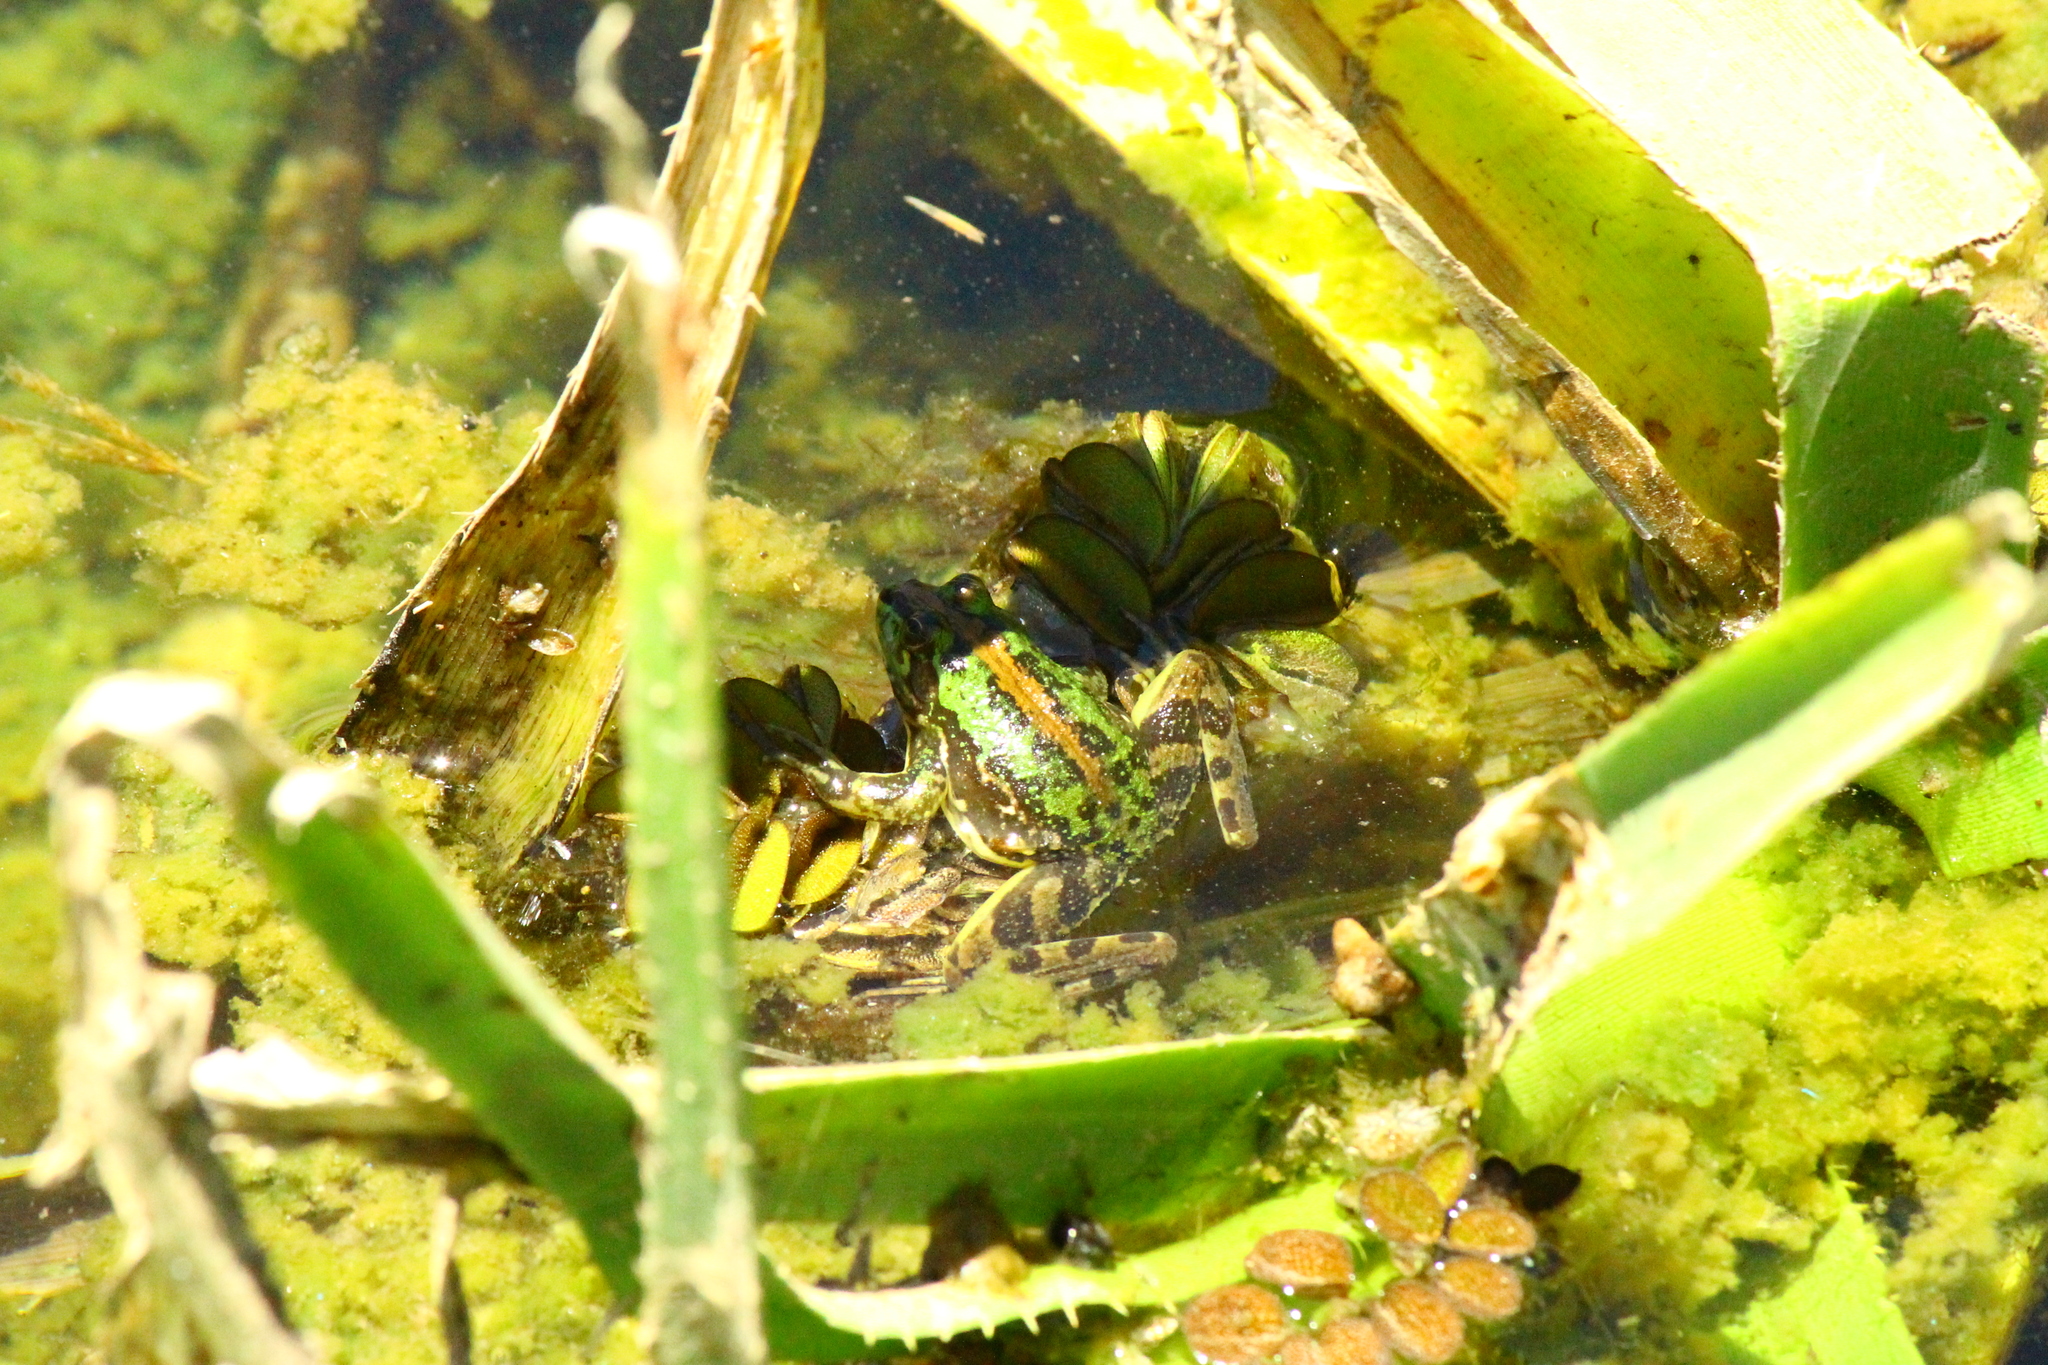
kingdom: Animalia
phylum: Chordata
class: Amphibia
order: Anura
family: Hylidae
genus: Pseudis
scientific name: Pseudis minuta
